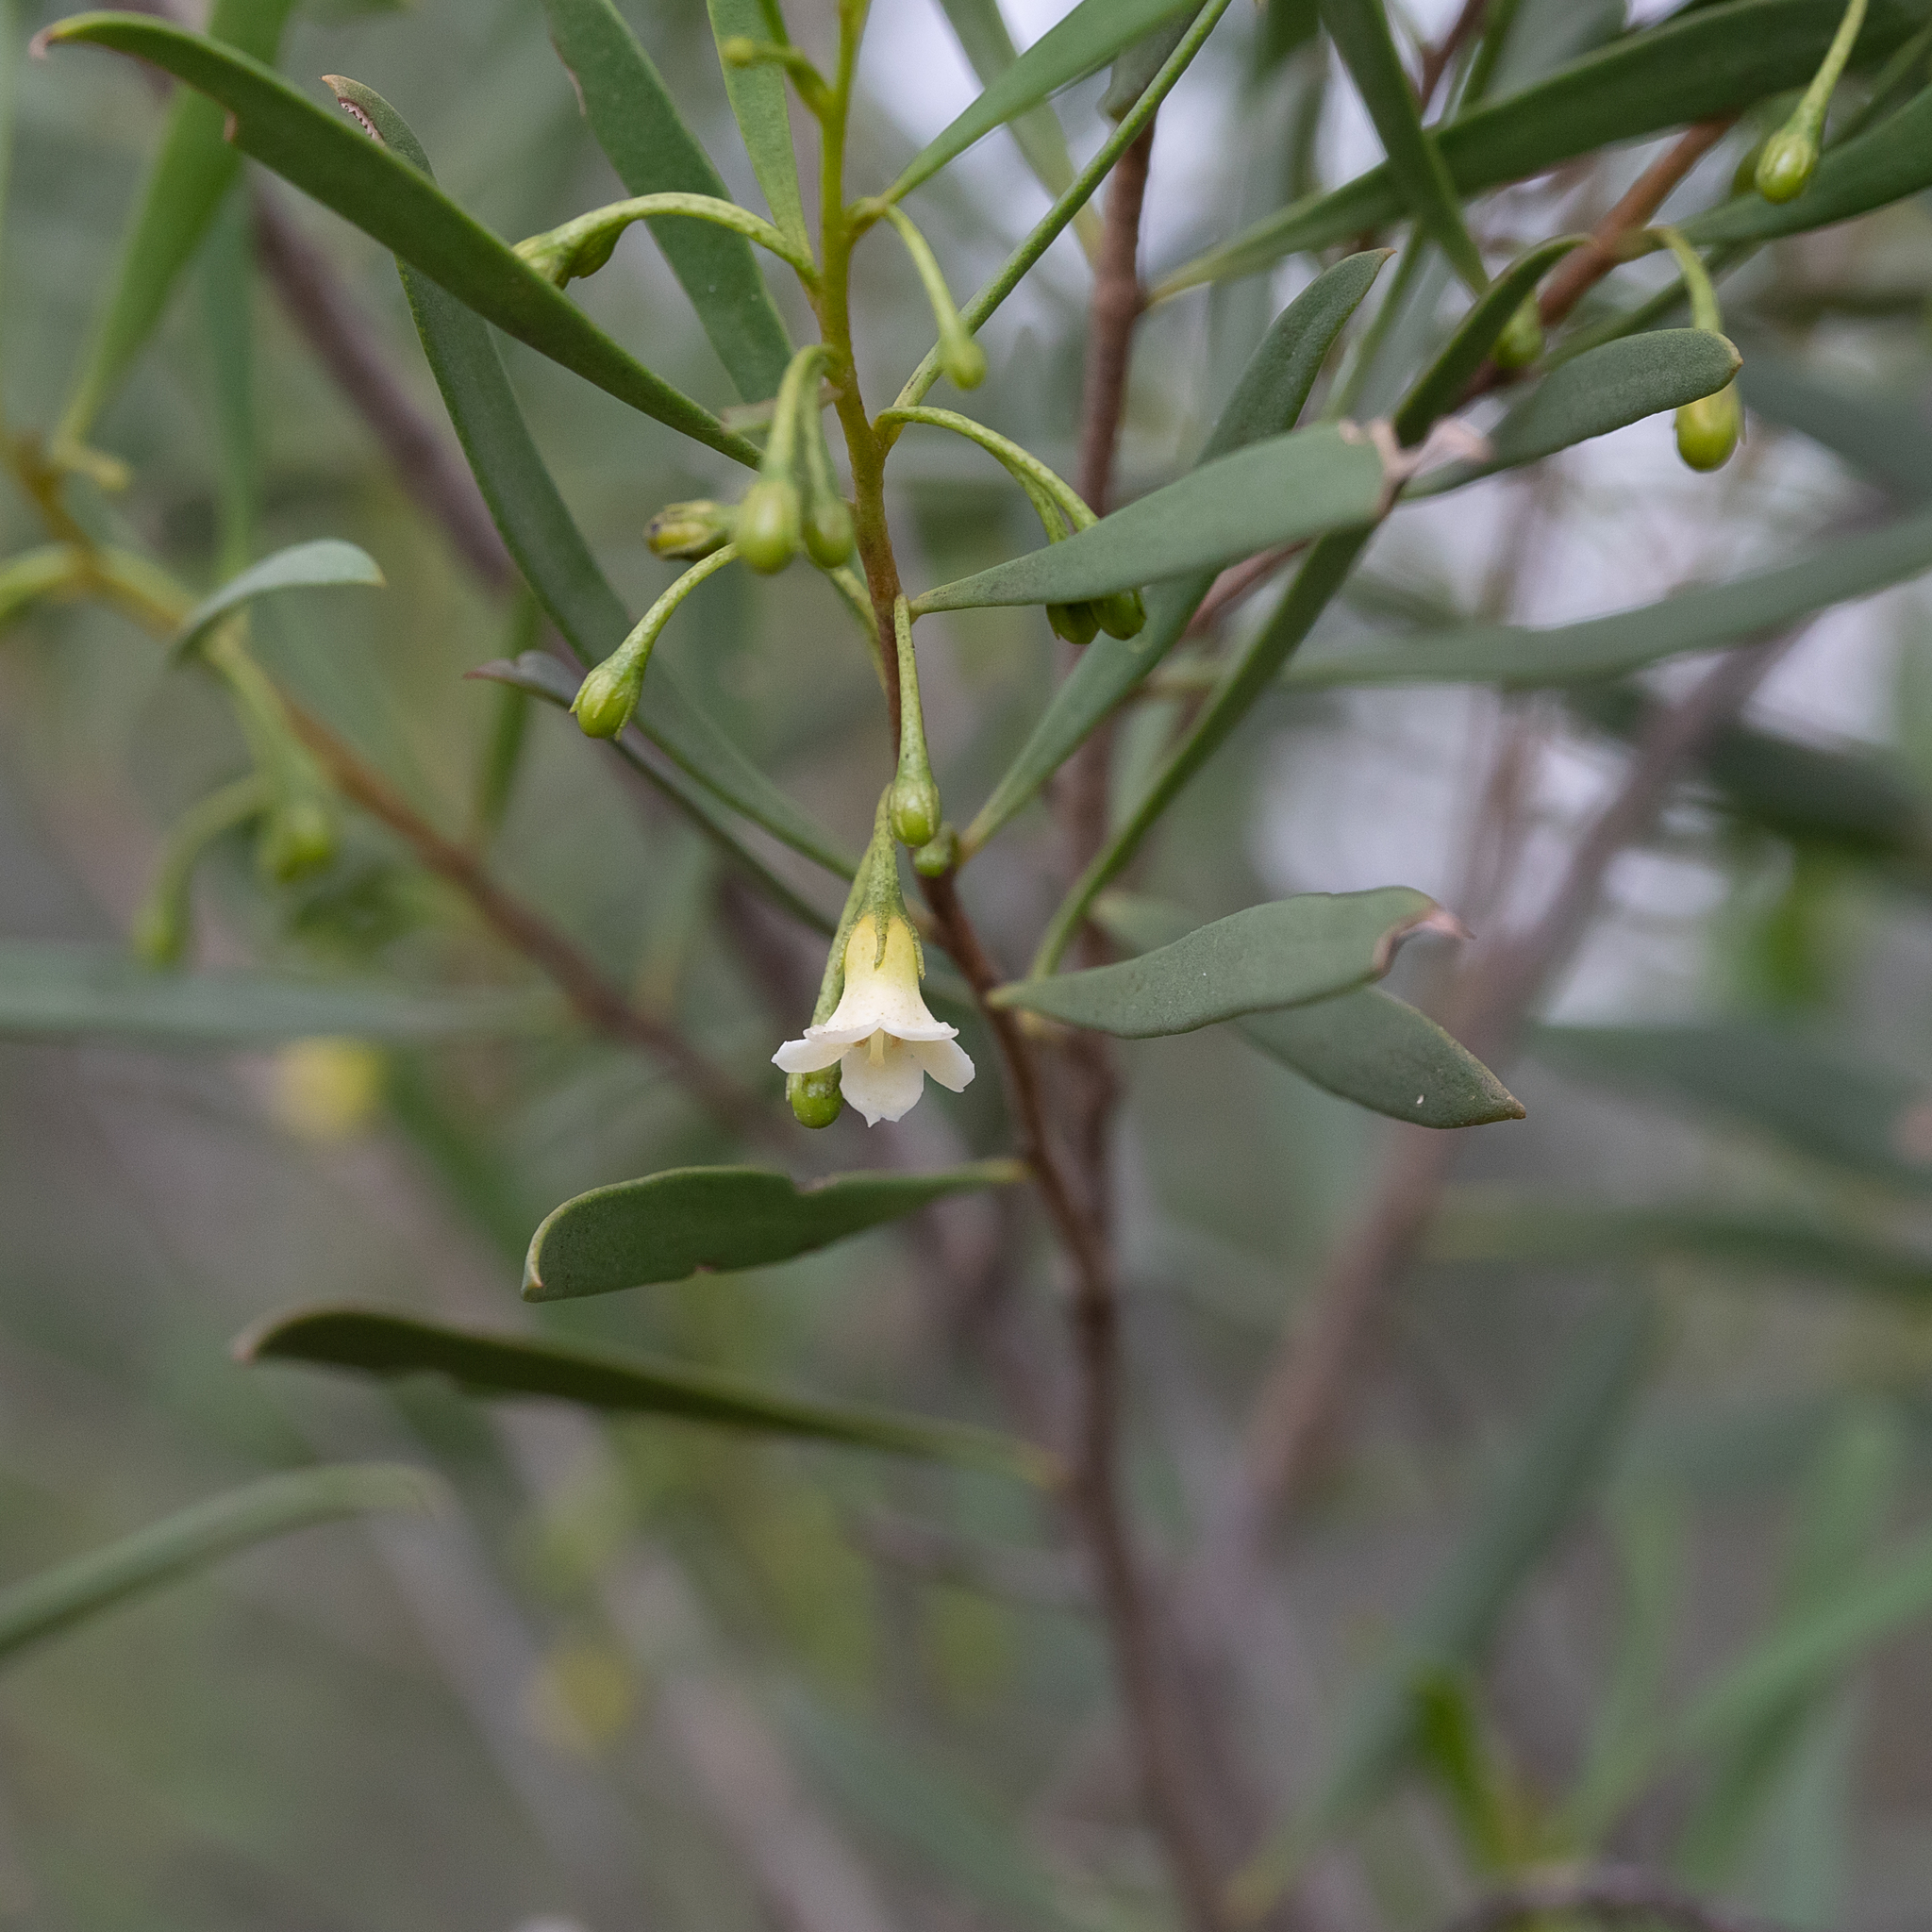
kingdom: Plantae
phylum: Tracheophyta
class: Magnoliopsida
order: Lamiales
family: Scrophulariaceae
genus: Eremophila
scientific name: Eremophila deserti
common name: Ellangowan-poisonbush
